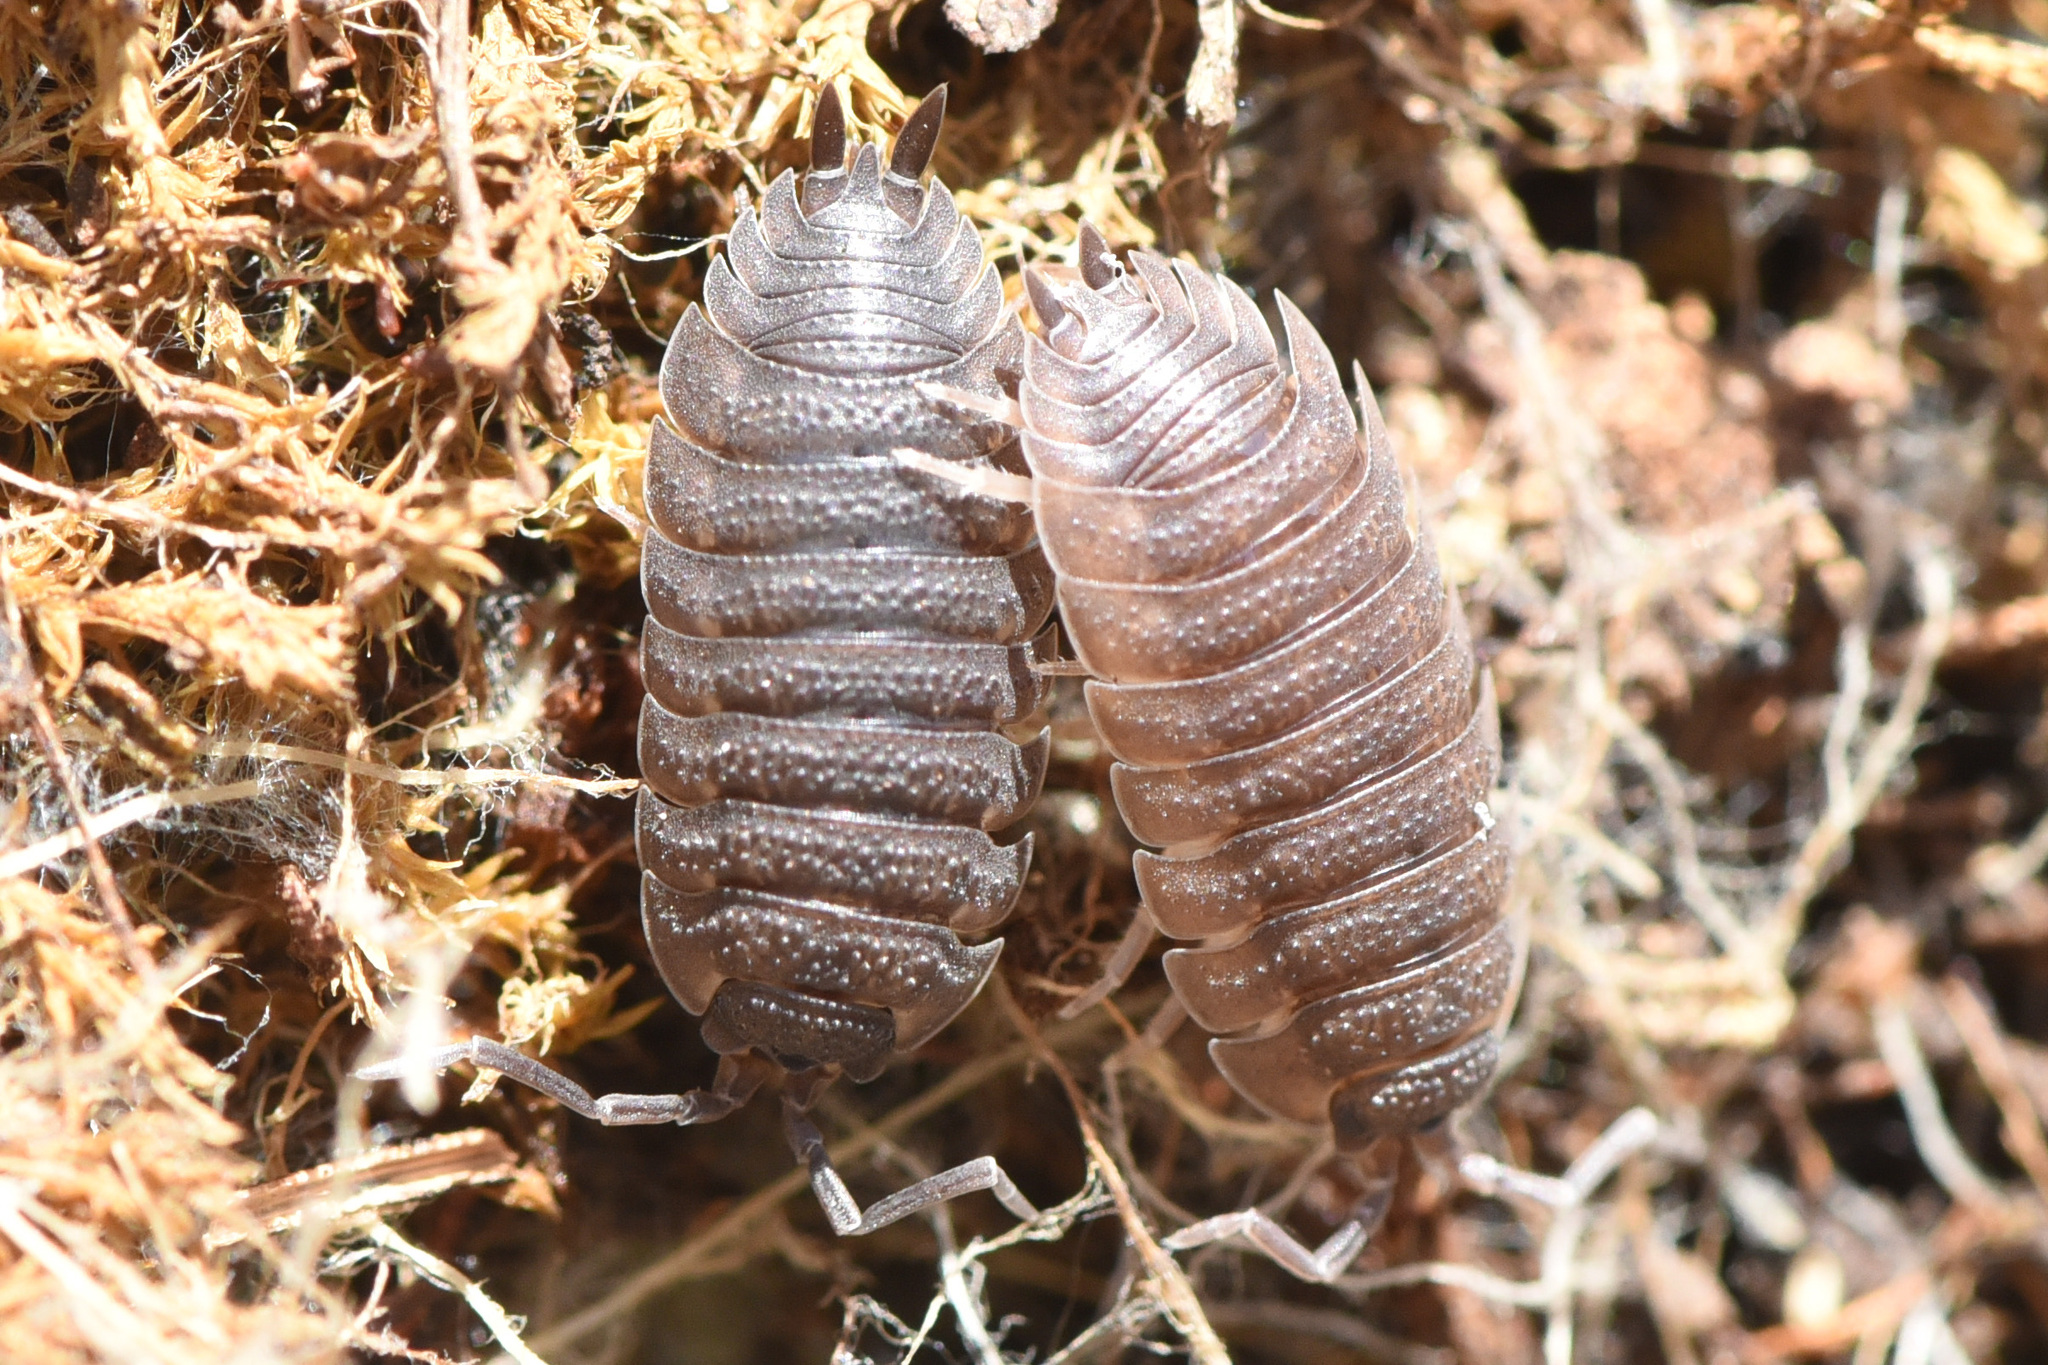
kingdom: Animalia
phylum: Arthropoda
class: Malacostraca
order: Isopoda
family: Porcellionidae
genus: Porcellio
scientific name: Porcellio scaber
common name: Common rough woodlouse
